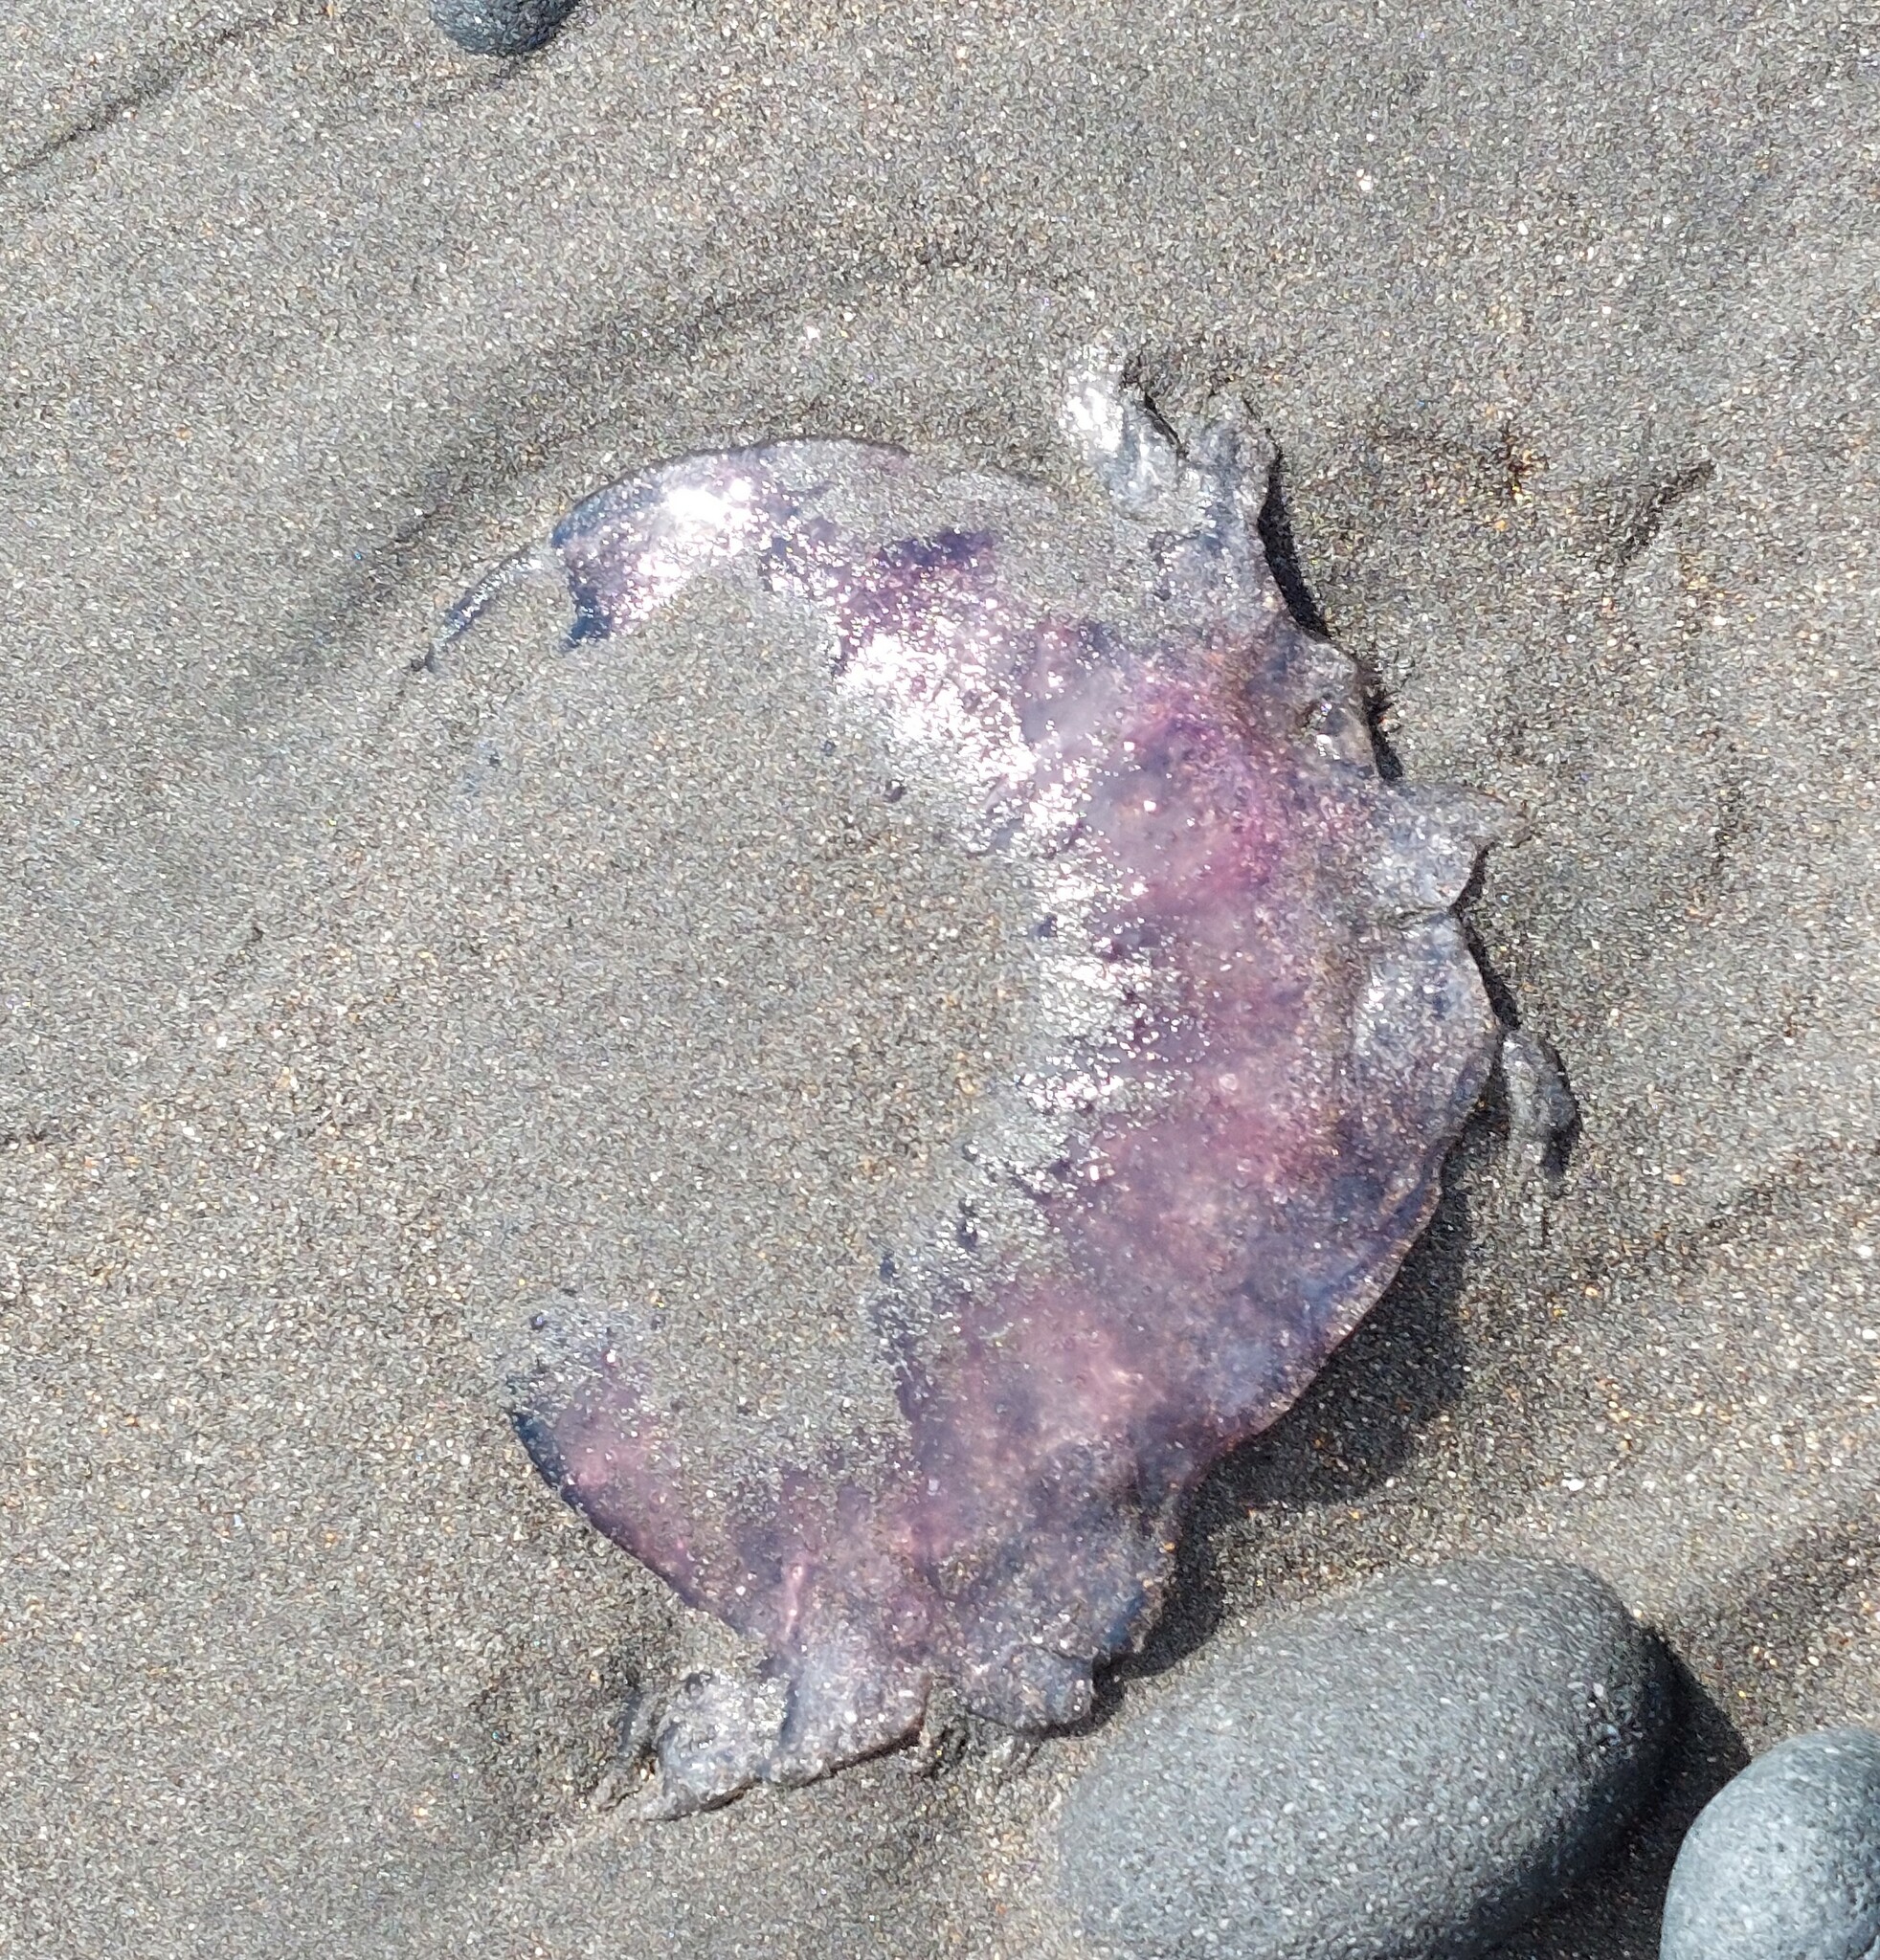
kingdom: Animalia
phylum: Cnidaria
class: Scyphozoa
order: Semaeostomeae
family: Cyaneidae
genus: Cyanea
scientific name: Cyanea annaskala
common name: Lion’s mane
